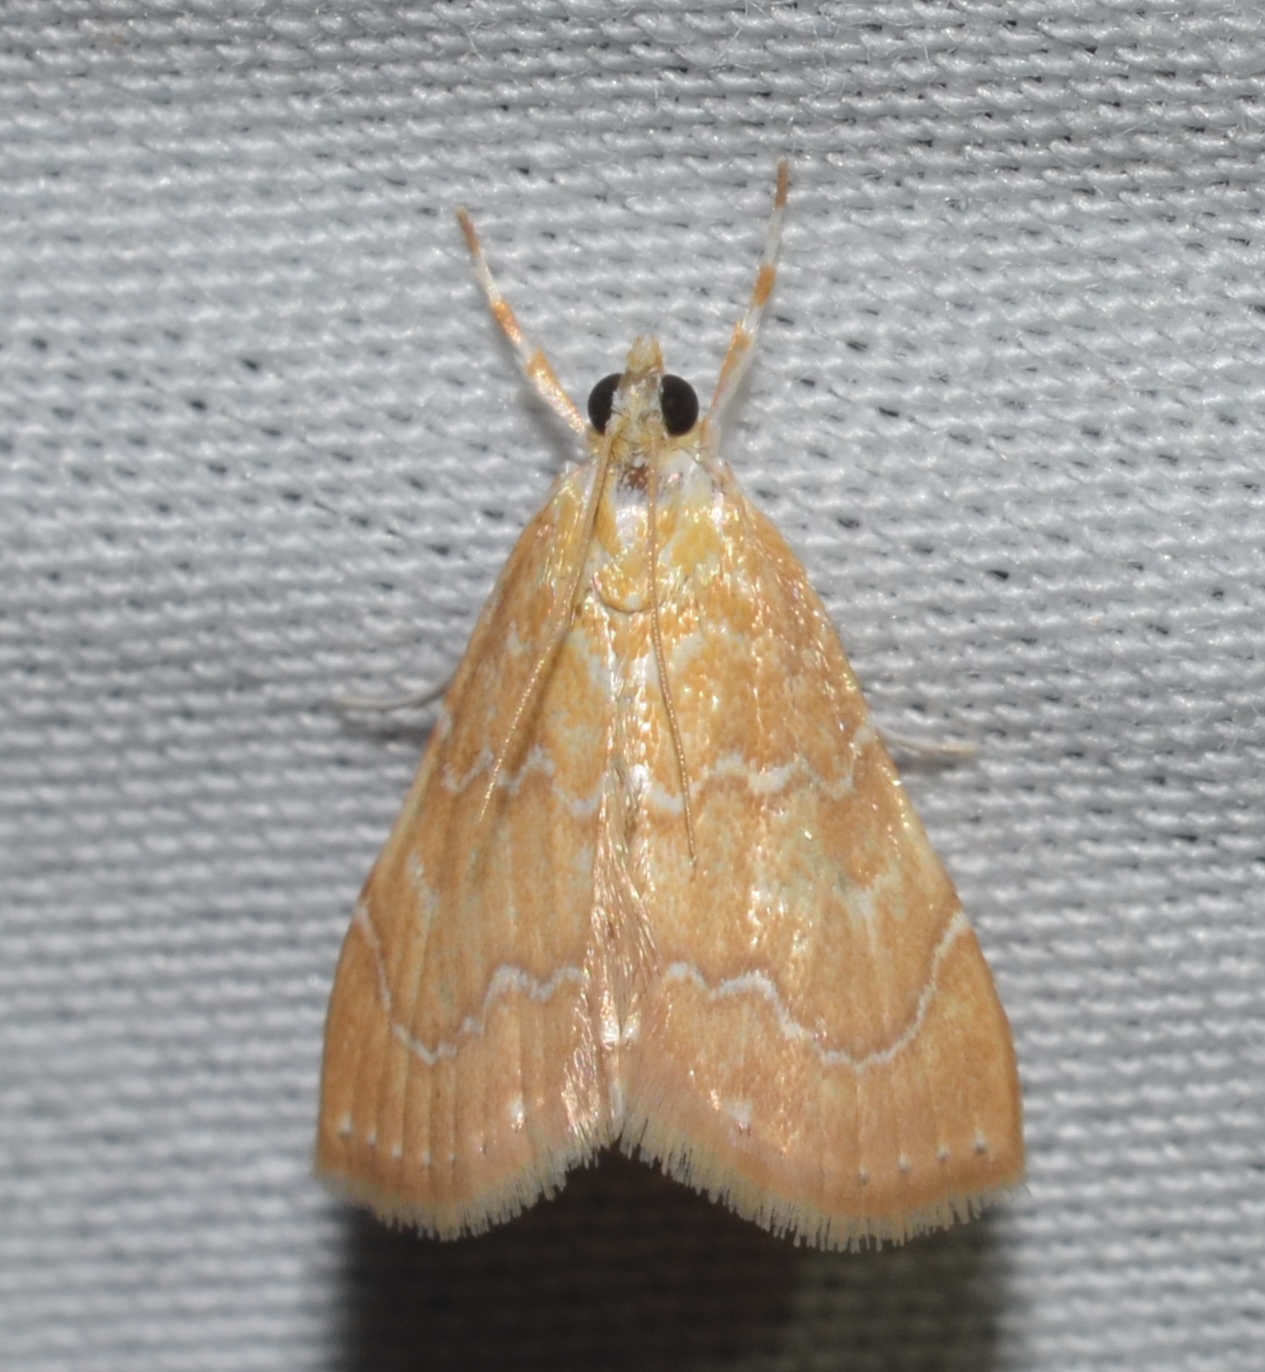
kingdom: Animalia
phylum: Arthropoda
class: Insecta
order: Lepidoptera
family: Crambidae
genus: Glaphyria
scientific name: Glaphyria sesquistrialis
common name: White-roped glaphyria
